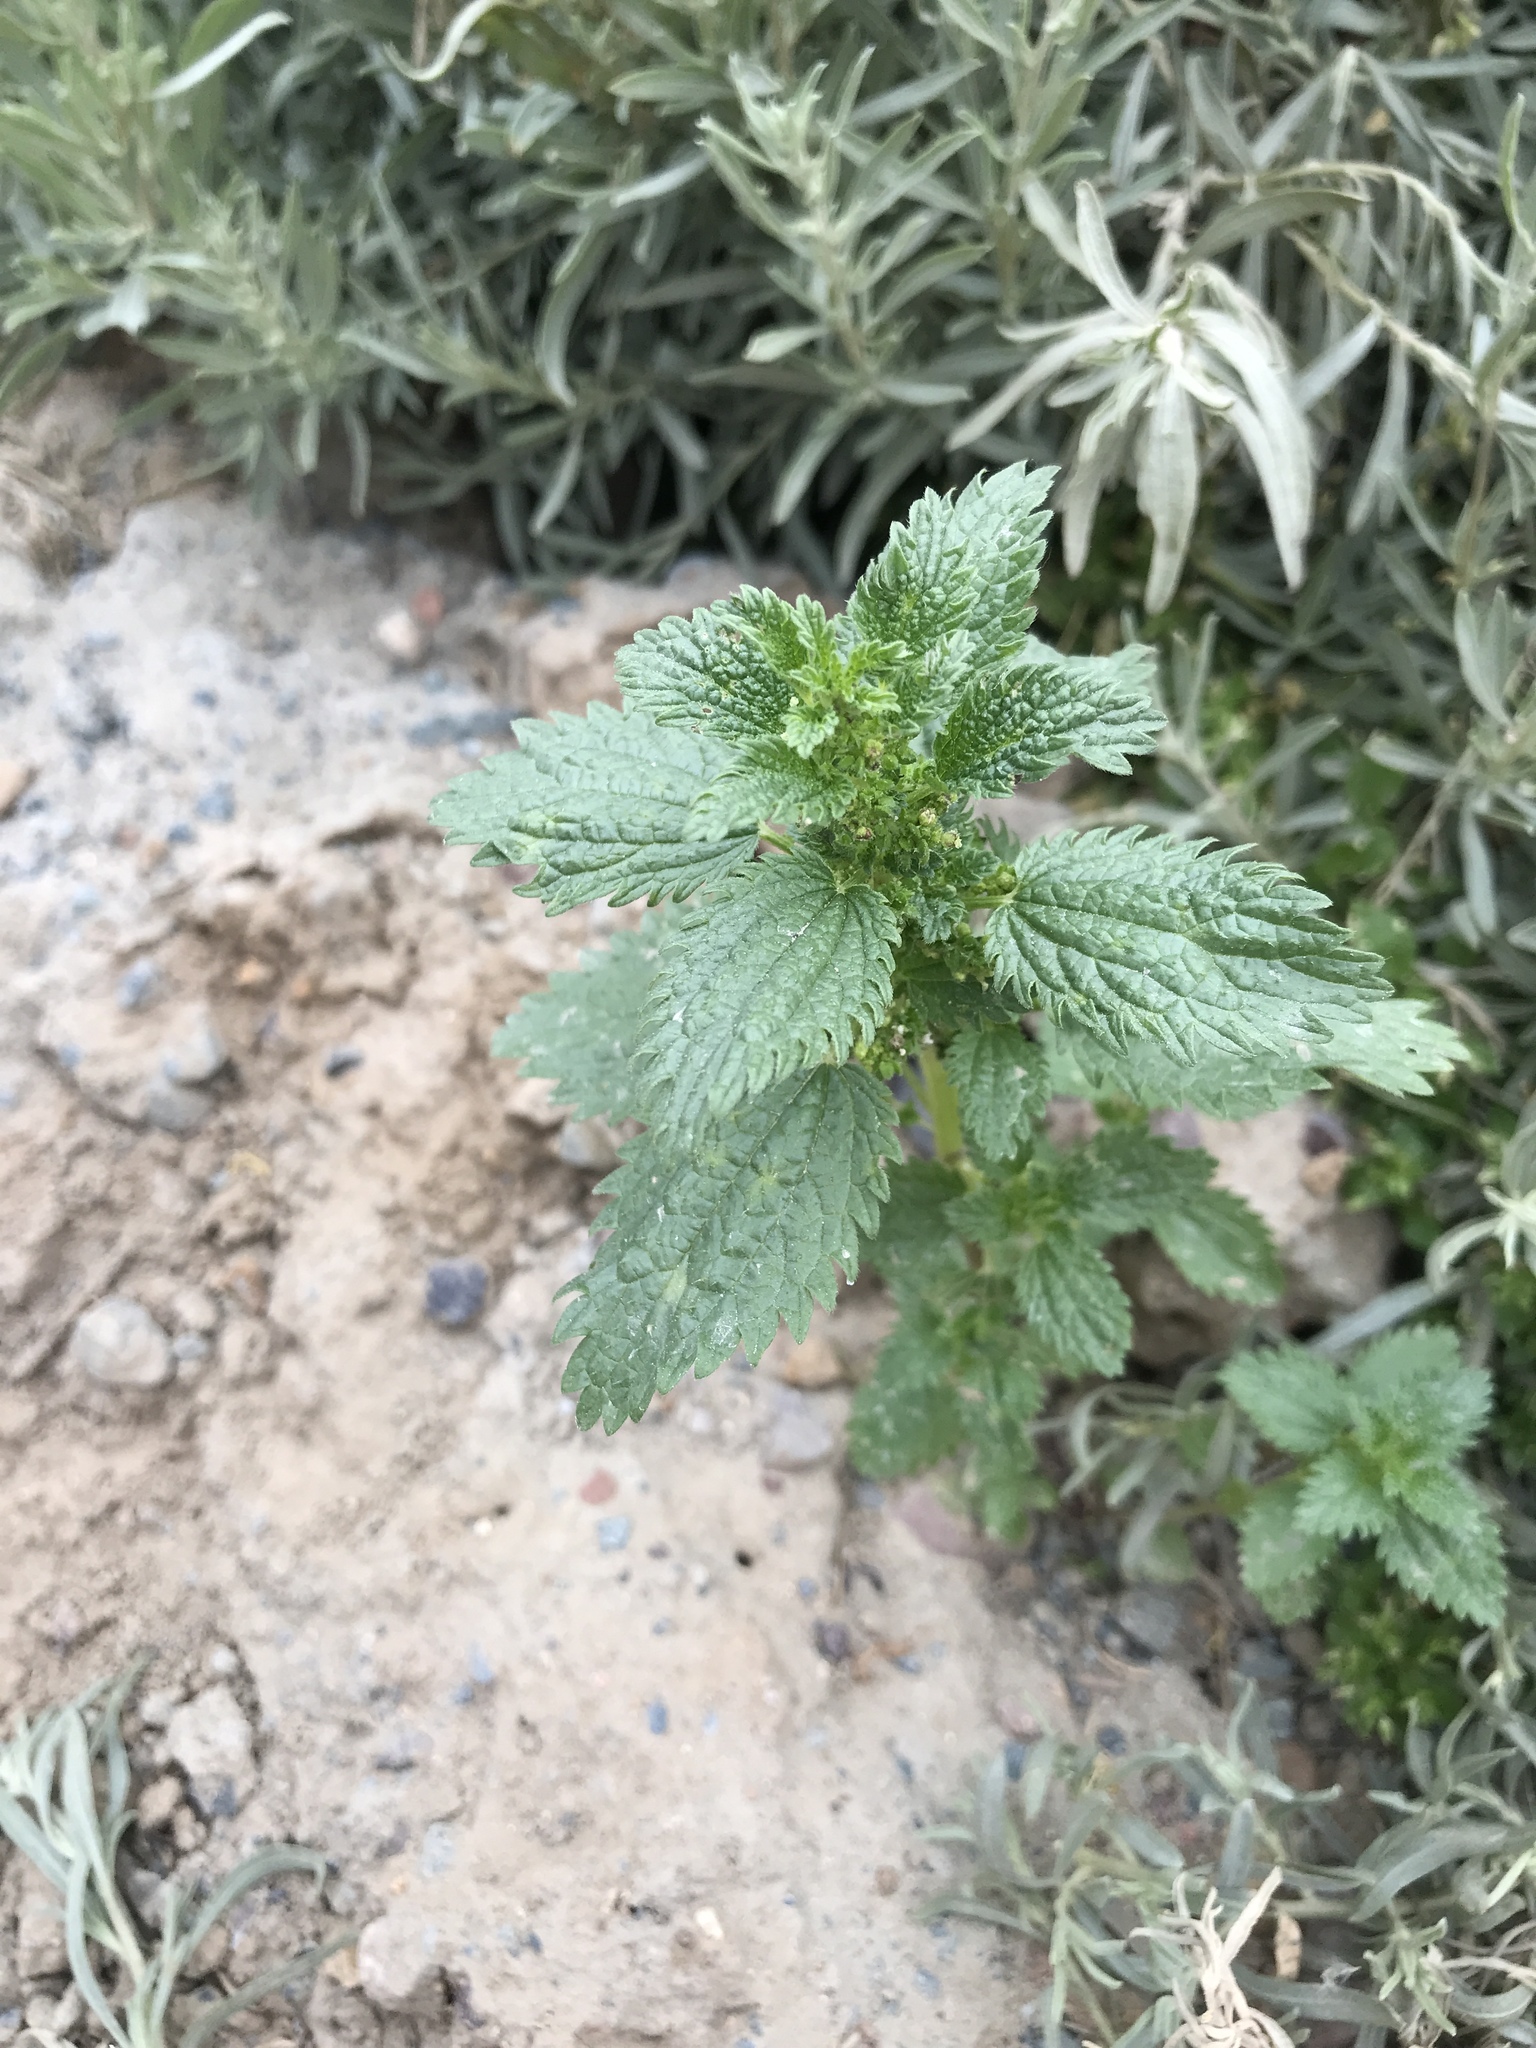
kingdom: Plantae
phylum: Tracheophyta
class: Magnoliopsida
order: Rosales
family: Urticaceae
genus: Urtica
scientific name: Urtica urens
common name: Dwarf nettle
